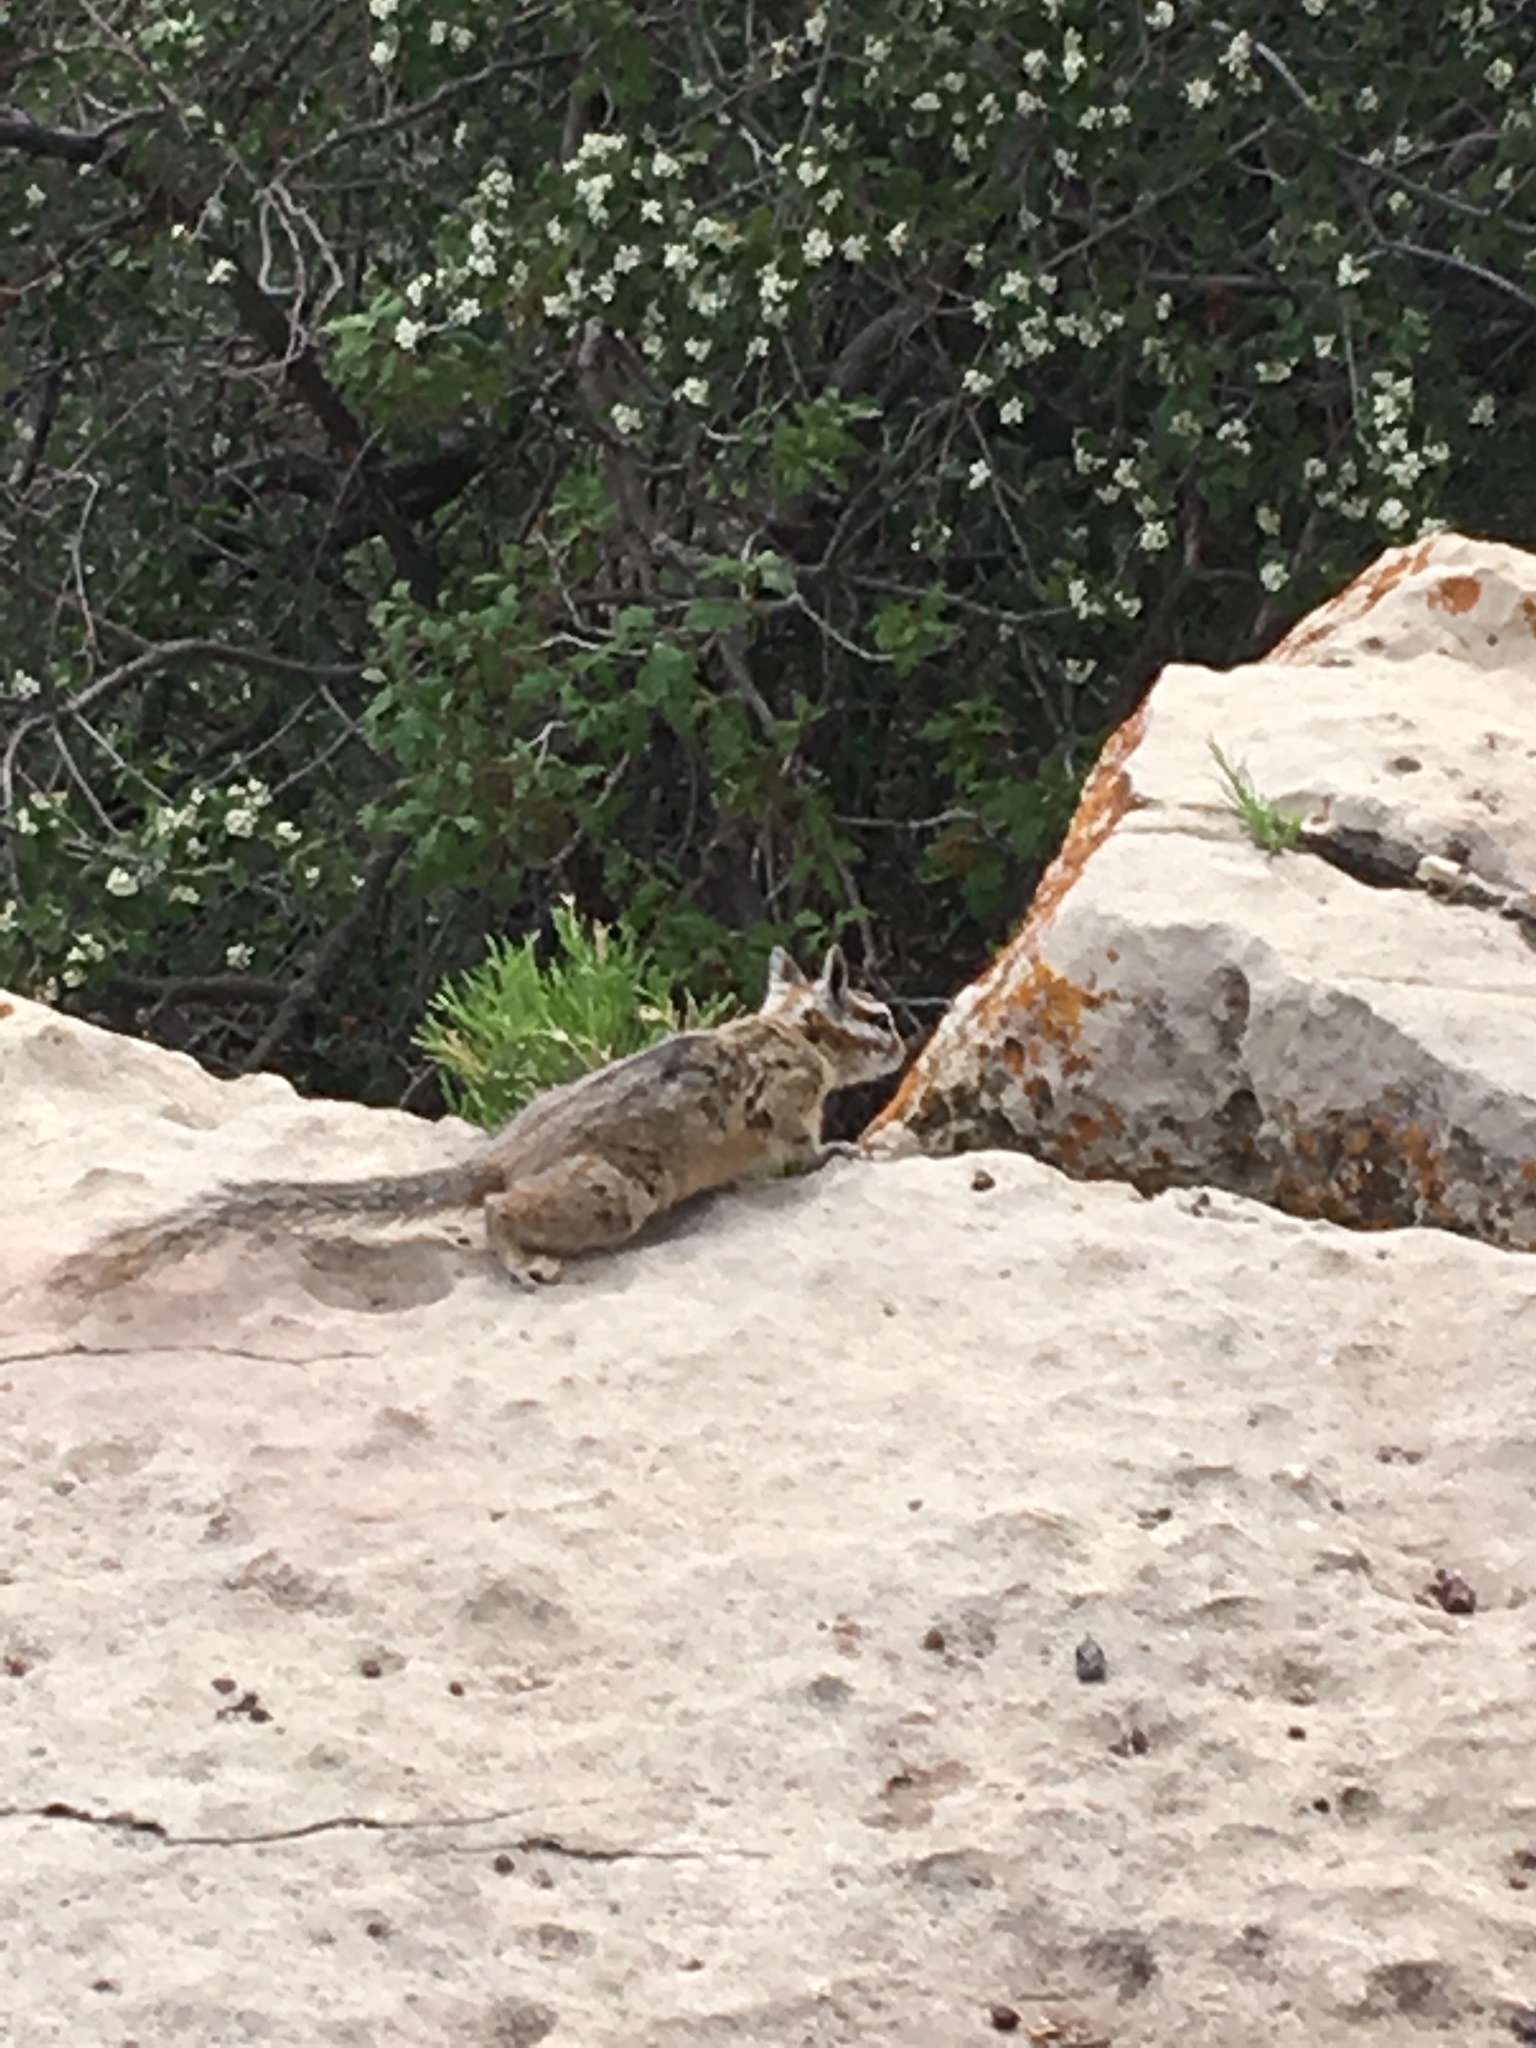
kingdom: Animalia
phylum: Chordata
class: Mammalia
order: Rodentia
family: Sciuridae
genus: Tamias
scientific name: Tamias dorsalis
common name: Cliff chipmunk
